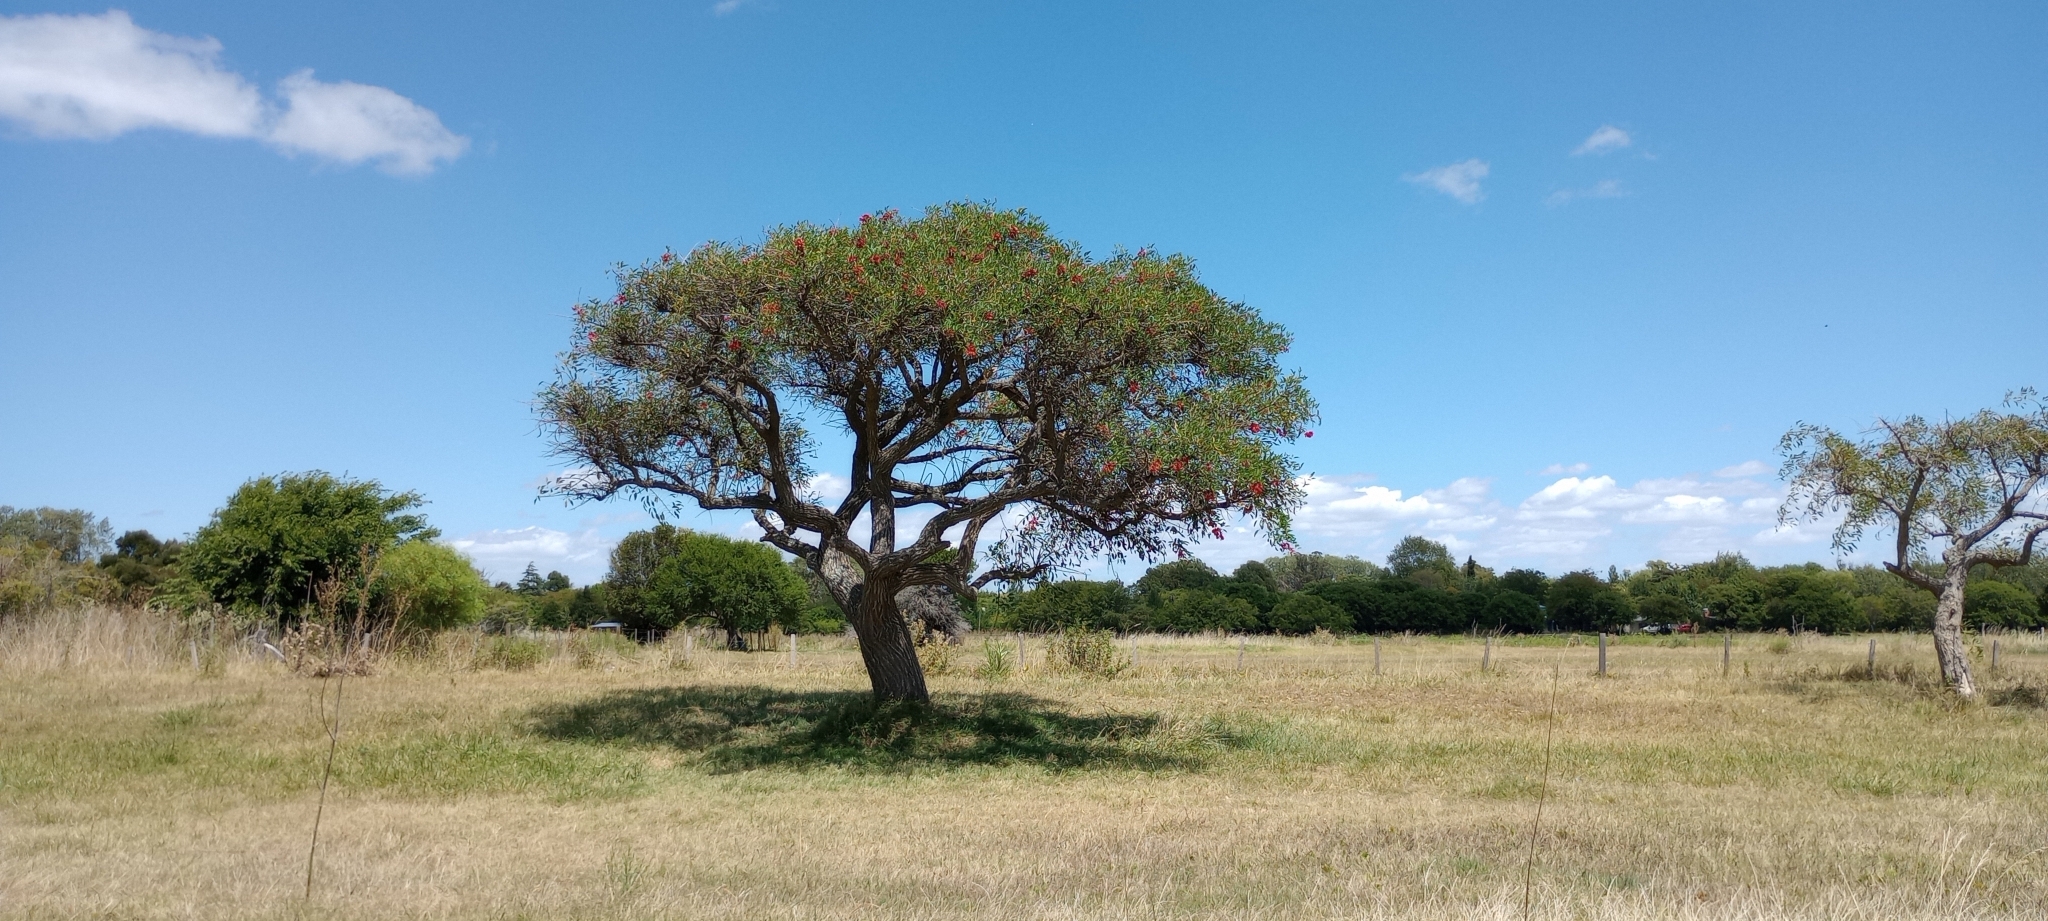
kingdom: Plantae
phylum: Tracheophyta
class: Magnoliopsida
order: Fabales
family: Fabaceae
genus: Erythrina
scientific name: Erythrina crista-galli
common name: Cockspur coral tree
